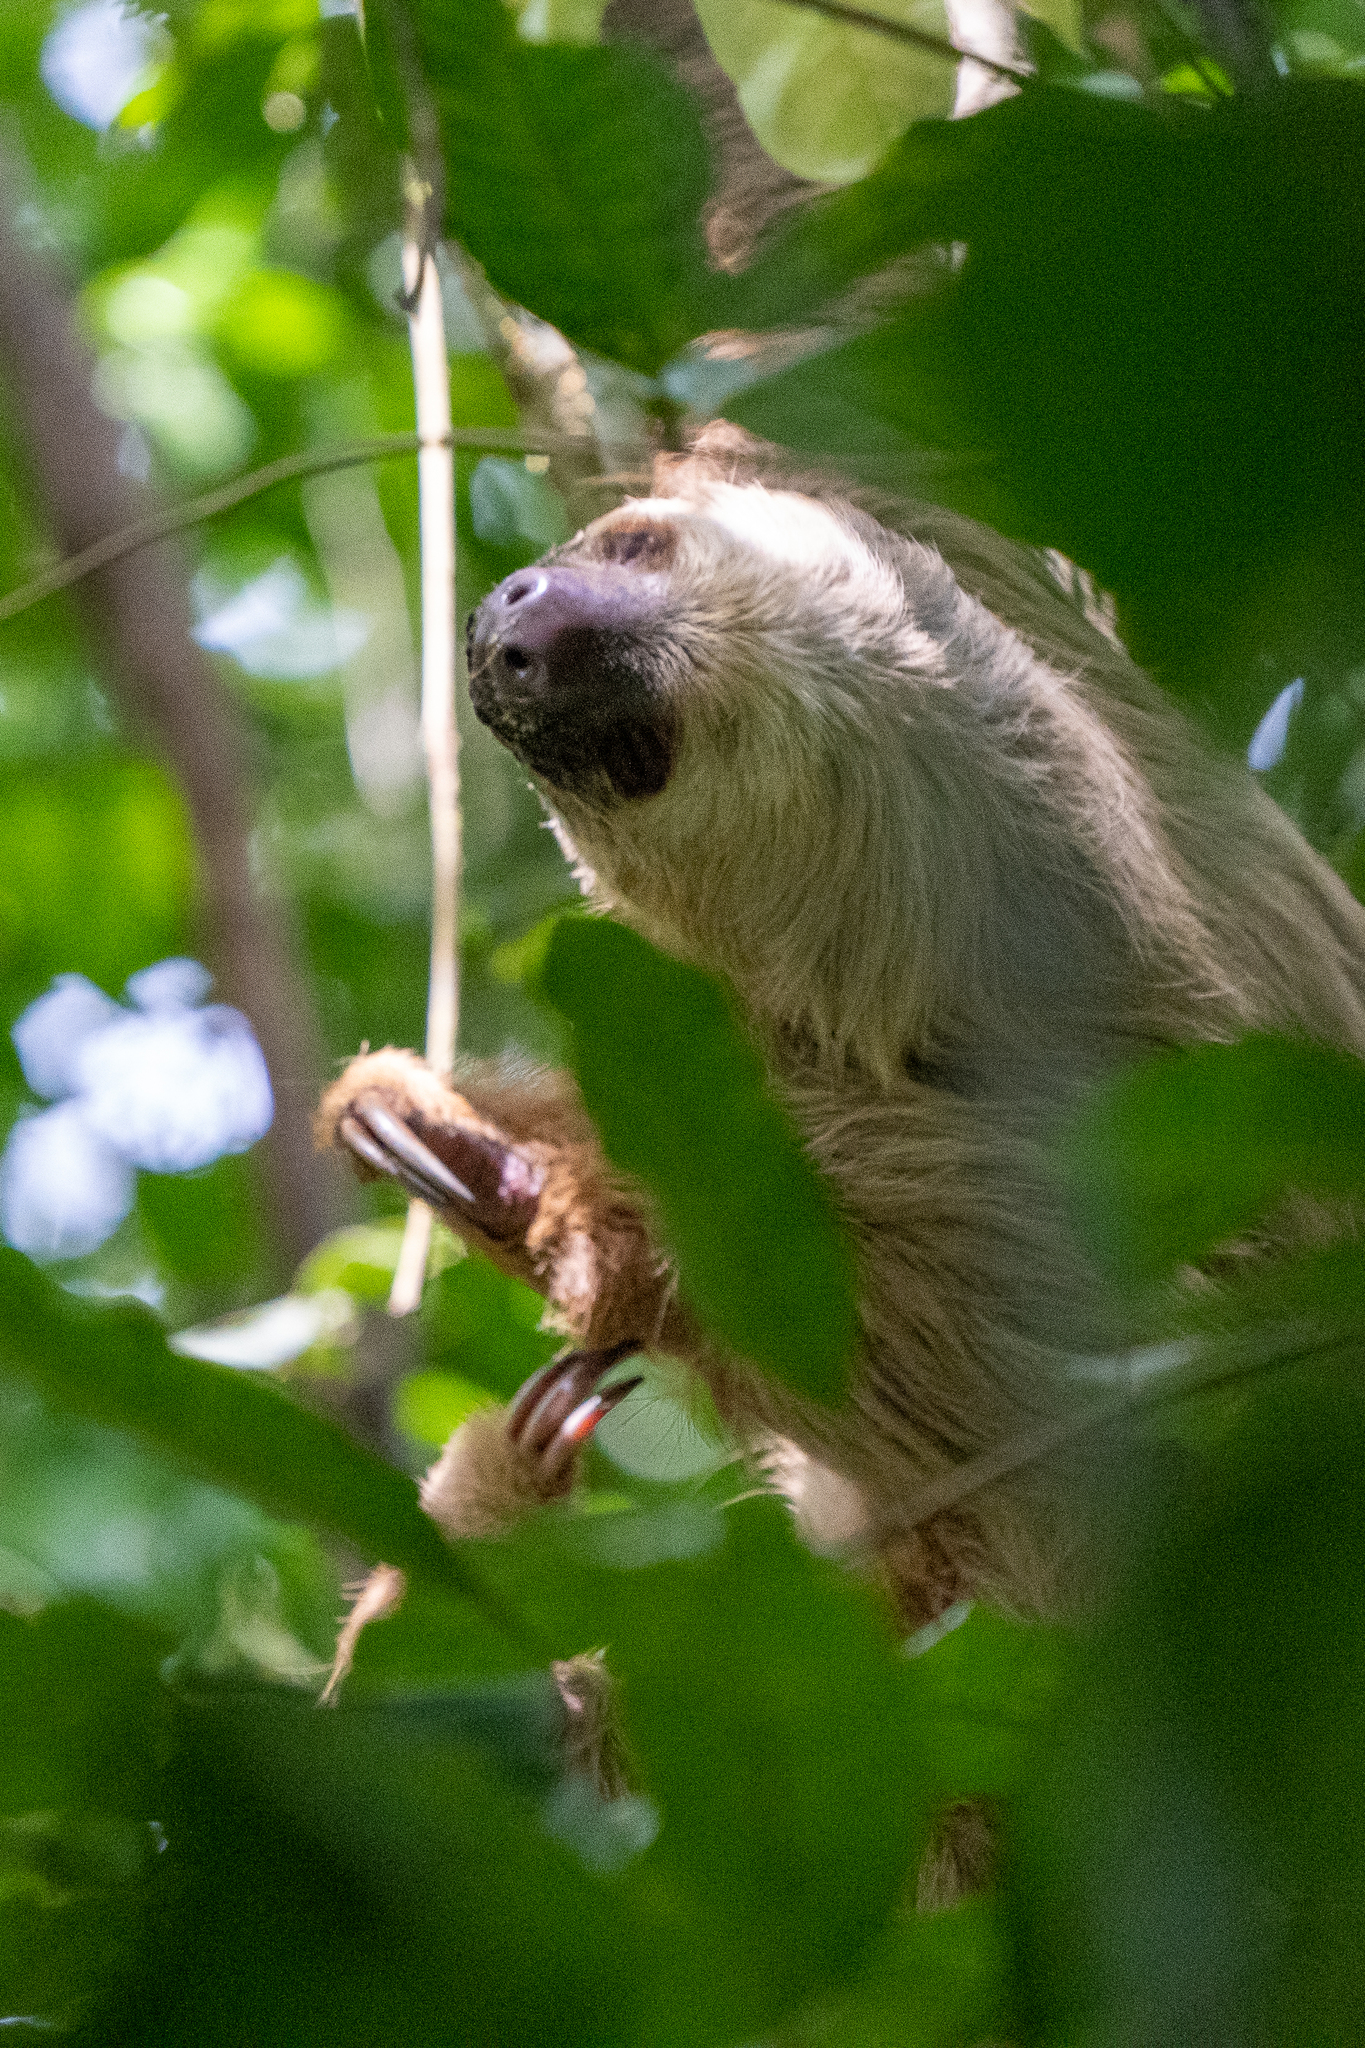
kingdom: Animalia
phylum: Chordata
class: Mammalia
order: Pilosa
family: Megalonychidae
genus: Choloepus
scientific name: Choloepus hoffmanni
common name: Hoffmann's two-toed sloth
